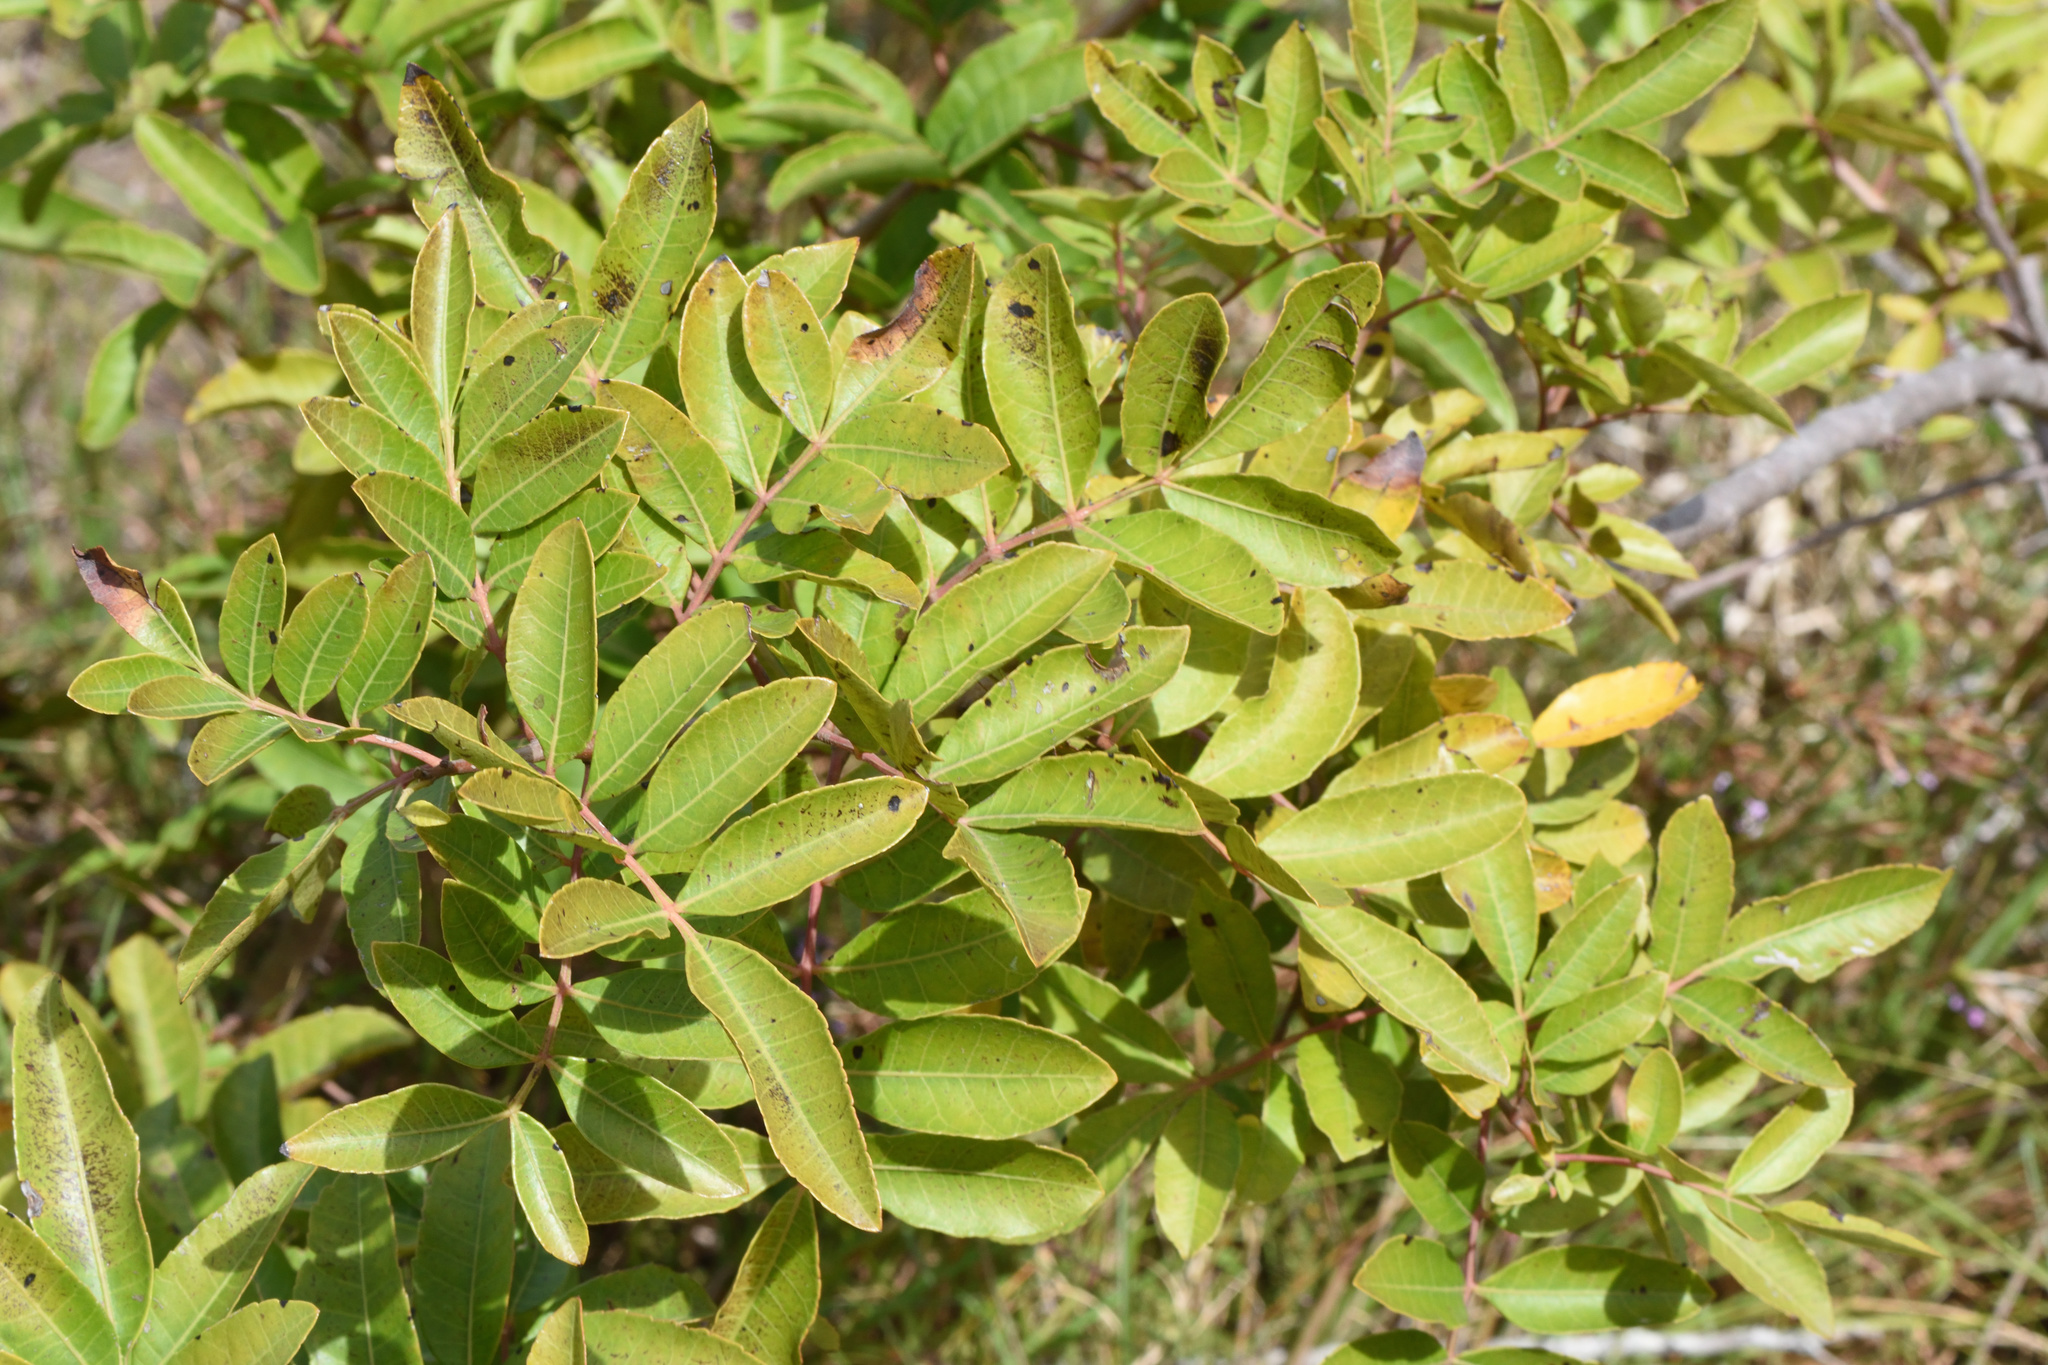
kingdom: Plantae
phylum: Tracheophyta
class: Magnoliopsida
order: Sapindales
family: Anacardiaceae
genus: Schinus
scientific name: Schinus terebinthifolia
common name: Brazilian peppertree
